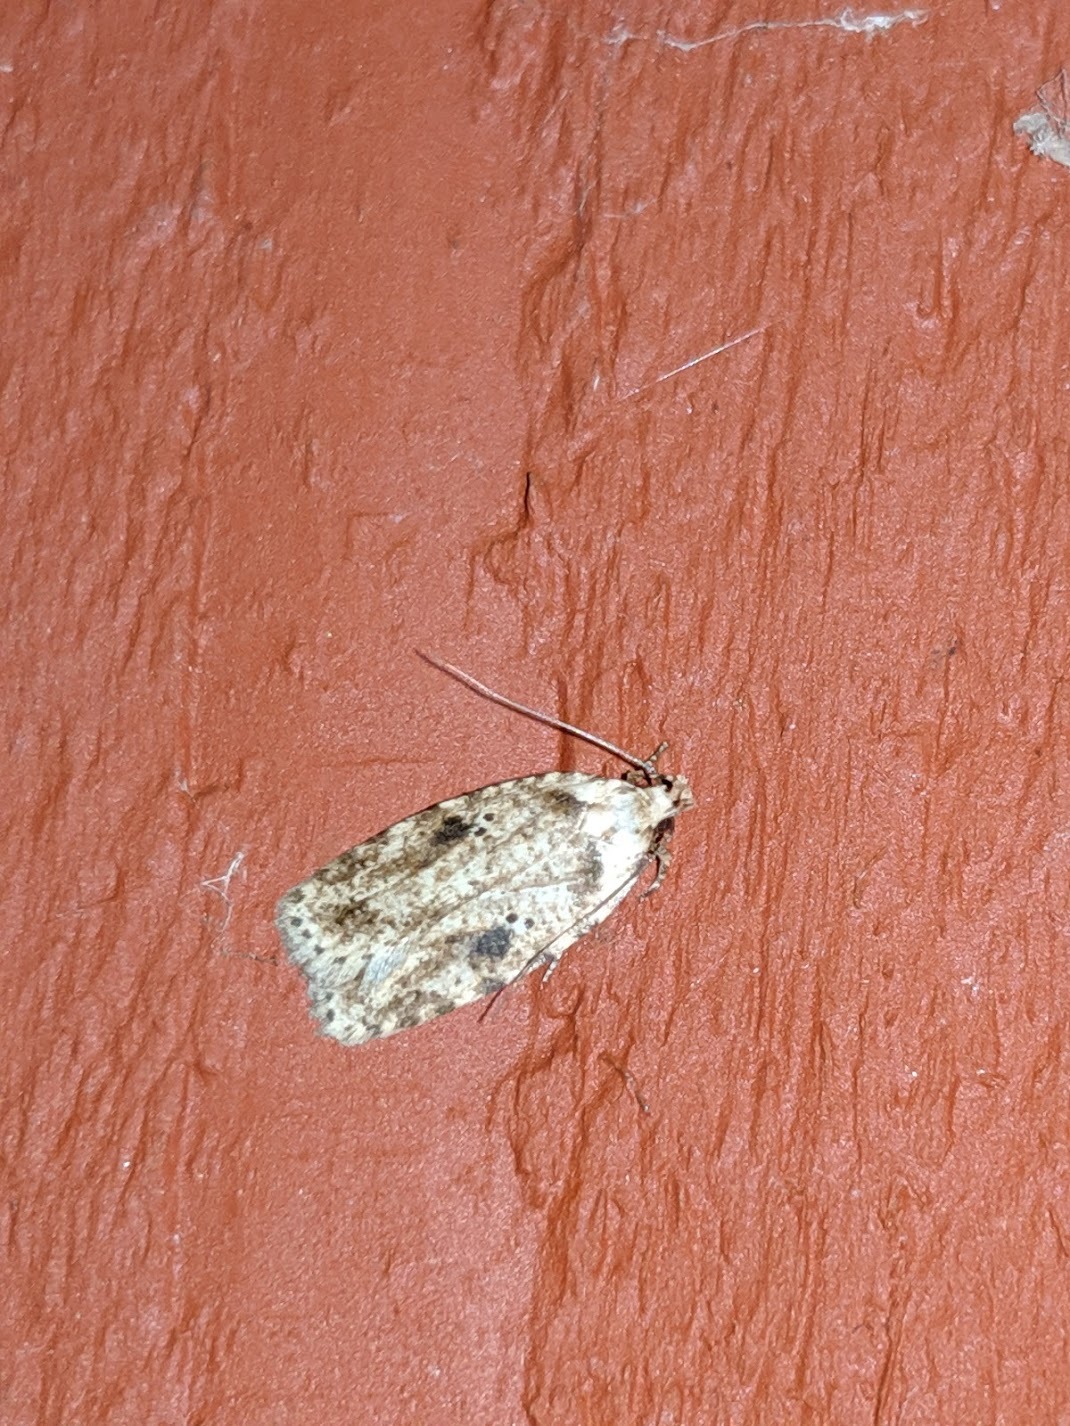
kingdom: Animalia
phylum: Arthropoda
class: Insecta
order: Lepidoptera
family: Depressariidae
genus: Agonopterix
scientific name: Agonopterix canadensis
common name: Canadian agonopterix moth
